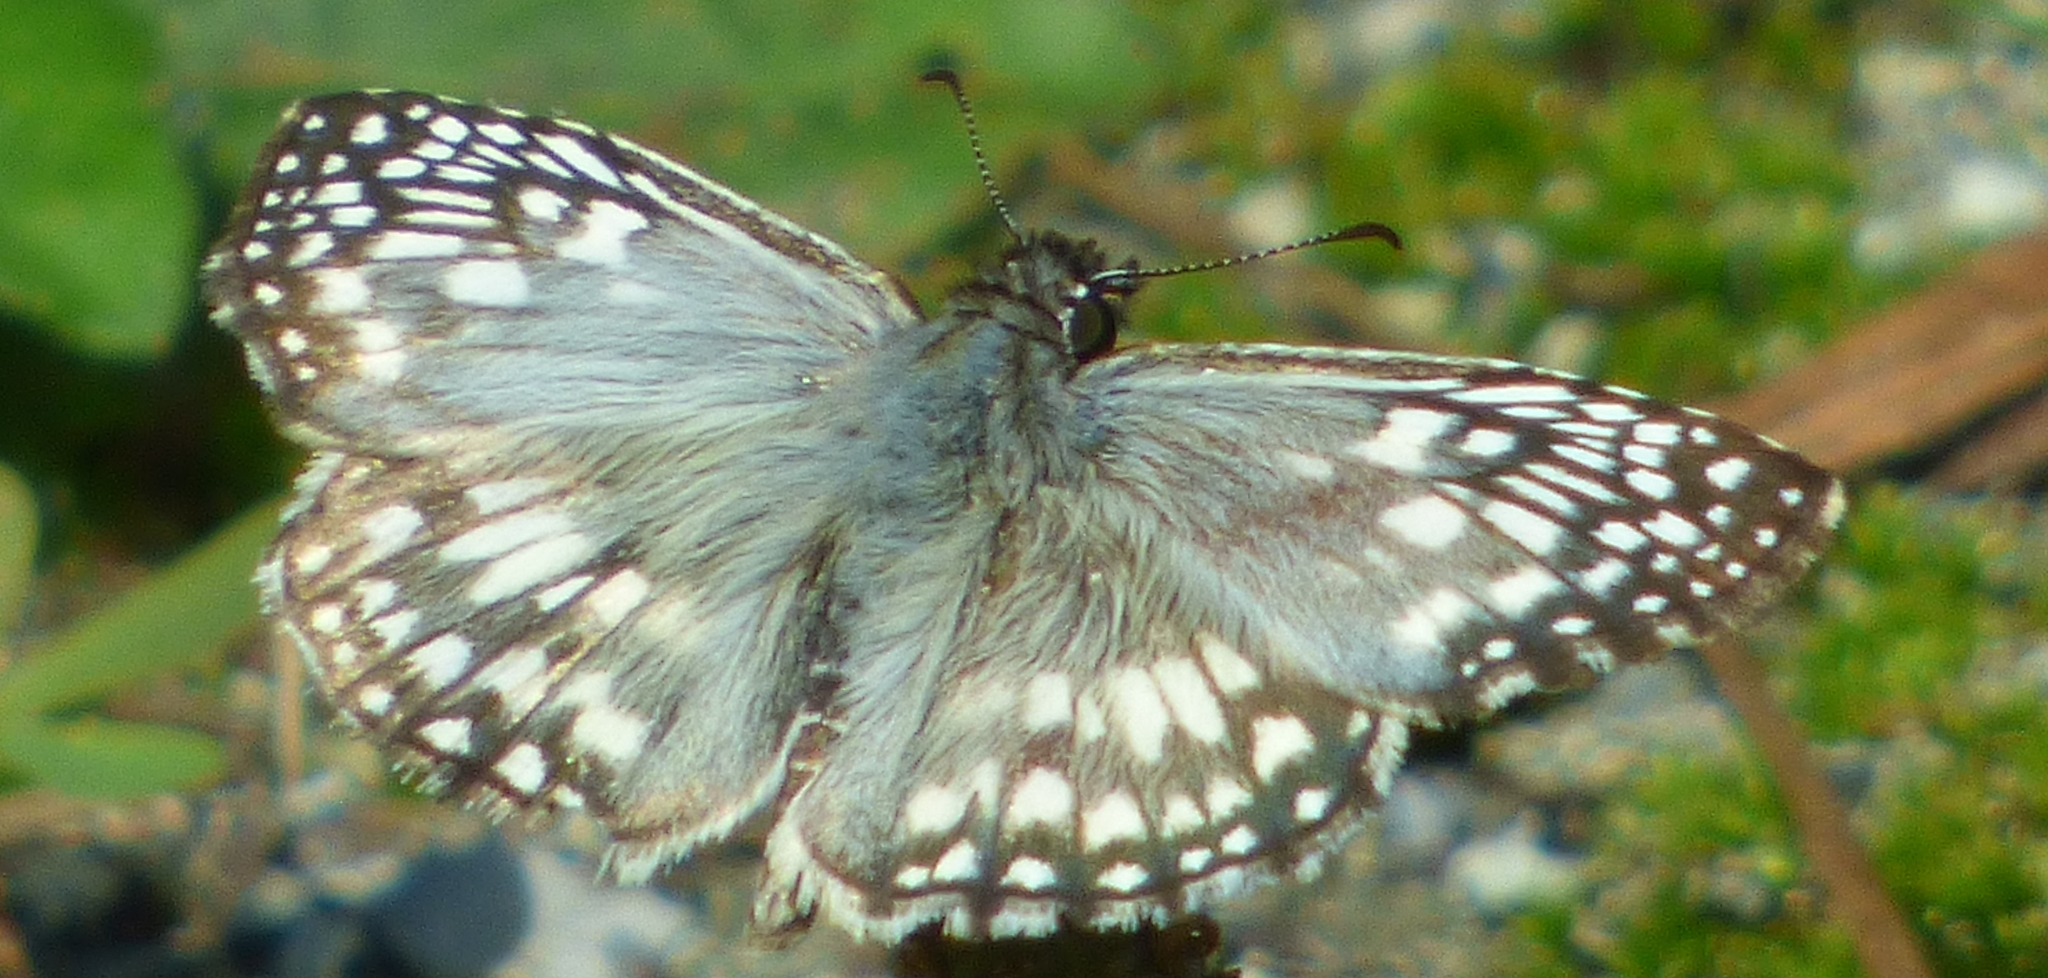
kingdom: Animalia
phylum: Arthropoda
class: Insecta
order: Lepidoptera
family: Hesperiidae
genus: Pyrgus
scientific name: Pyrgus oileus
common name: Tropical checkered-skipper
